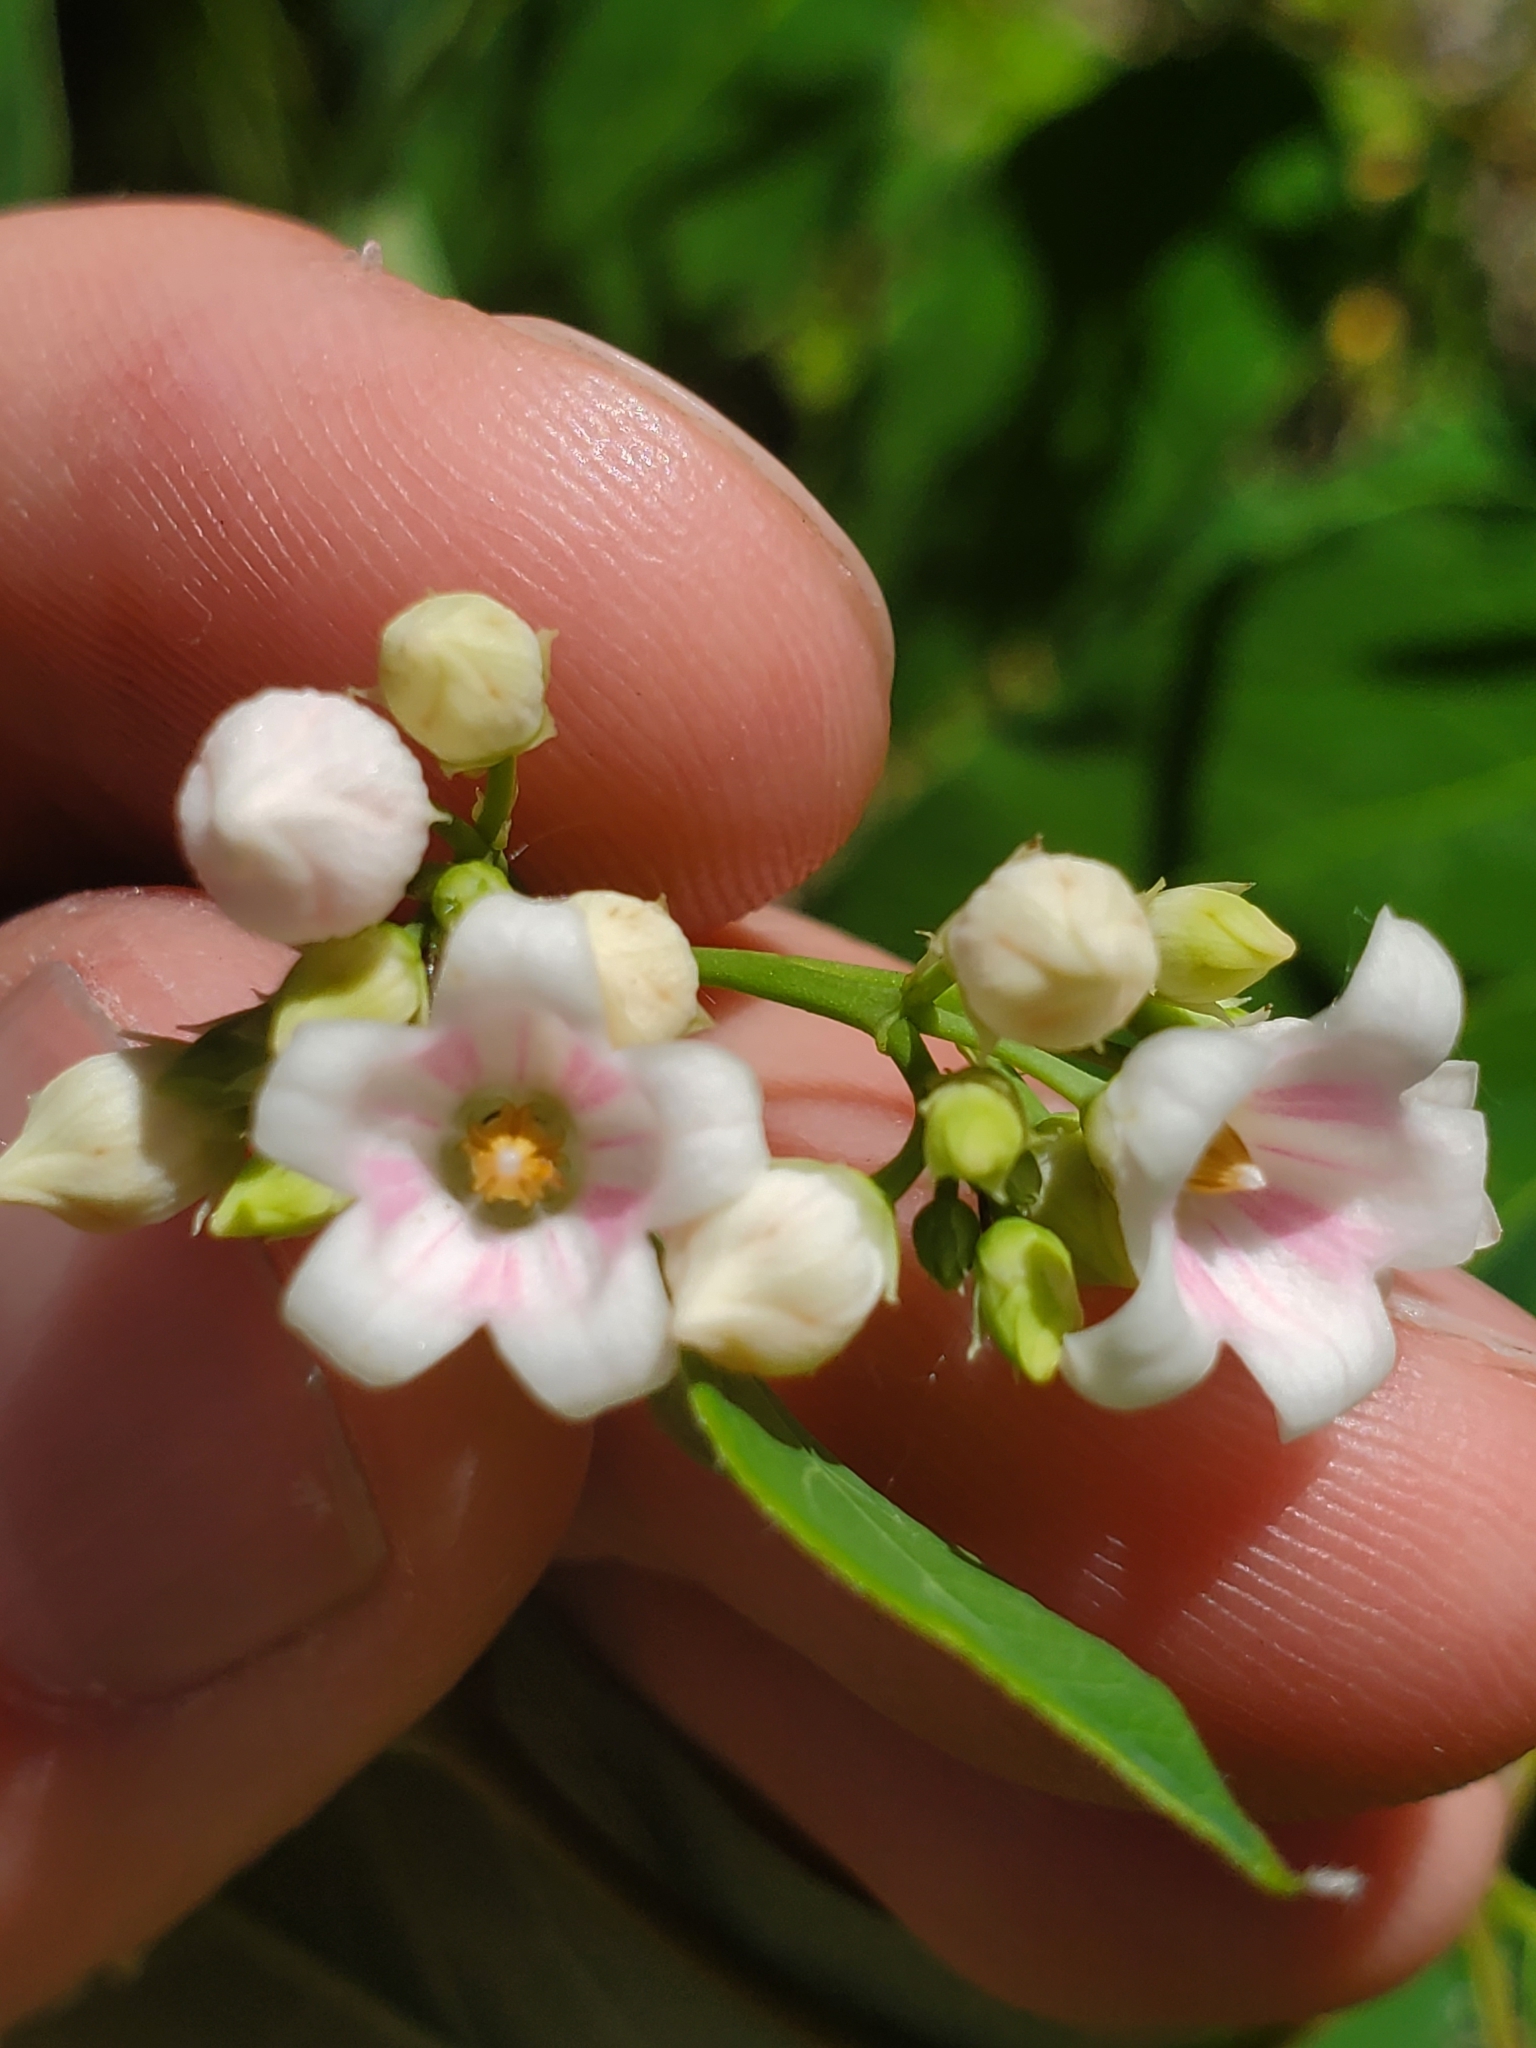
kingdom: Plantae
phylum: Tracheophyta
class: Magnoliopsida
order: Gentianales
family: Apocynaceae
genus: Apocynum
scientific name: Apocynum androsaemifolium
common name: Spreading dogbane
